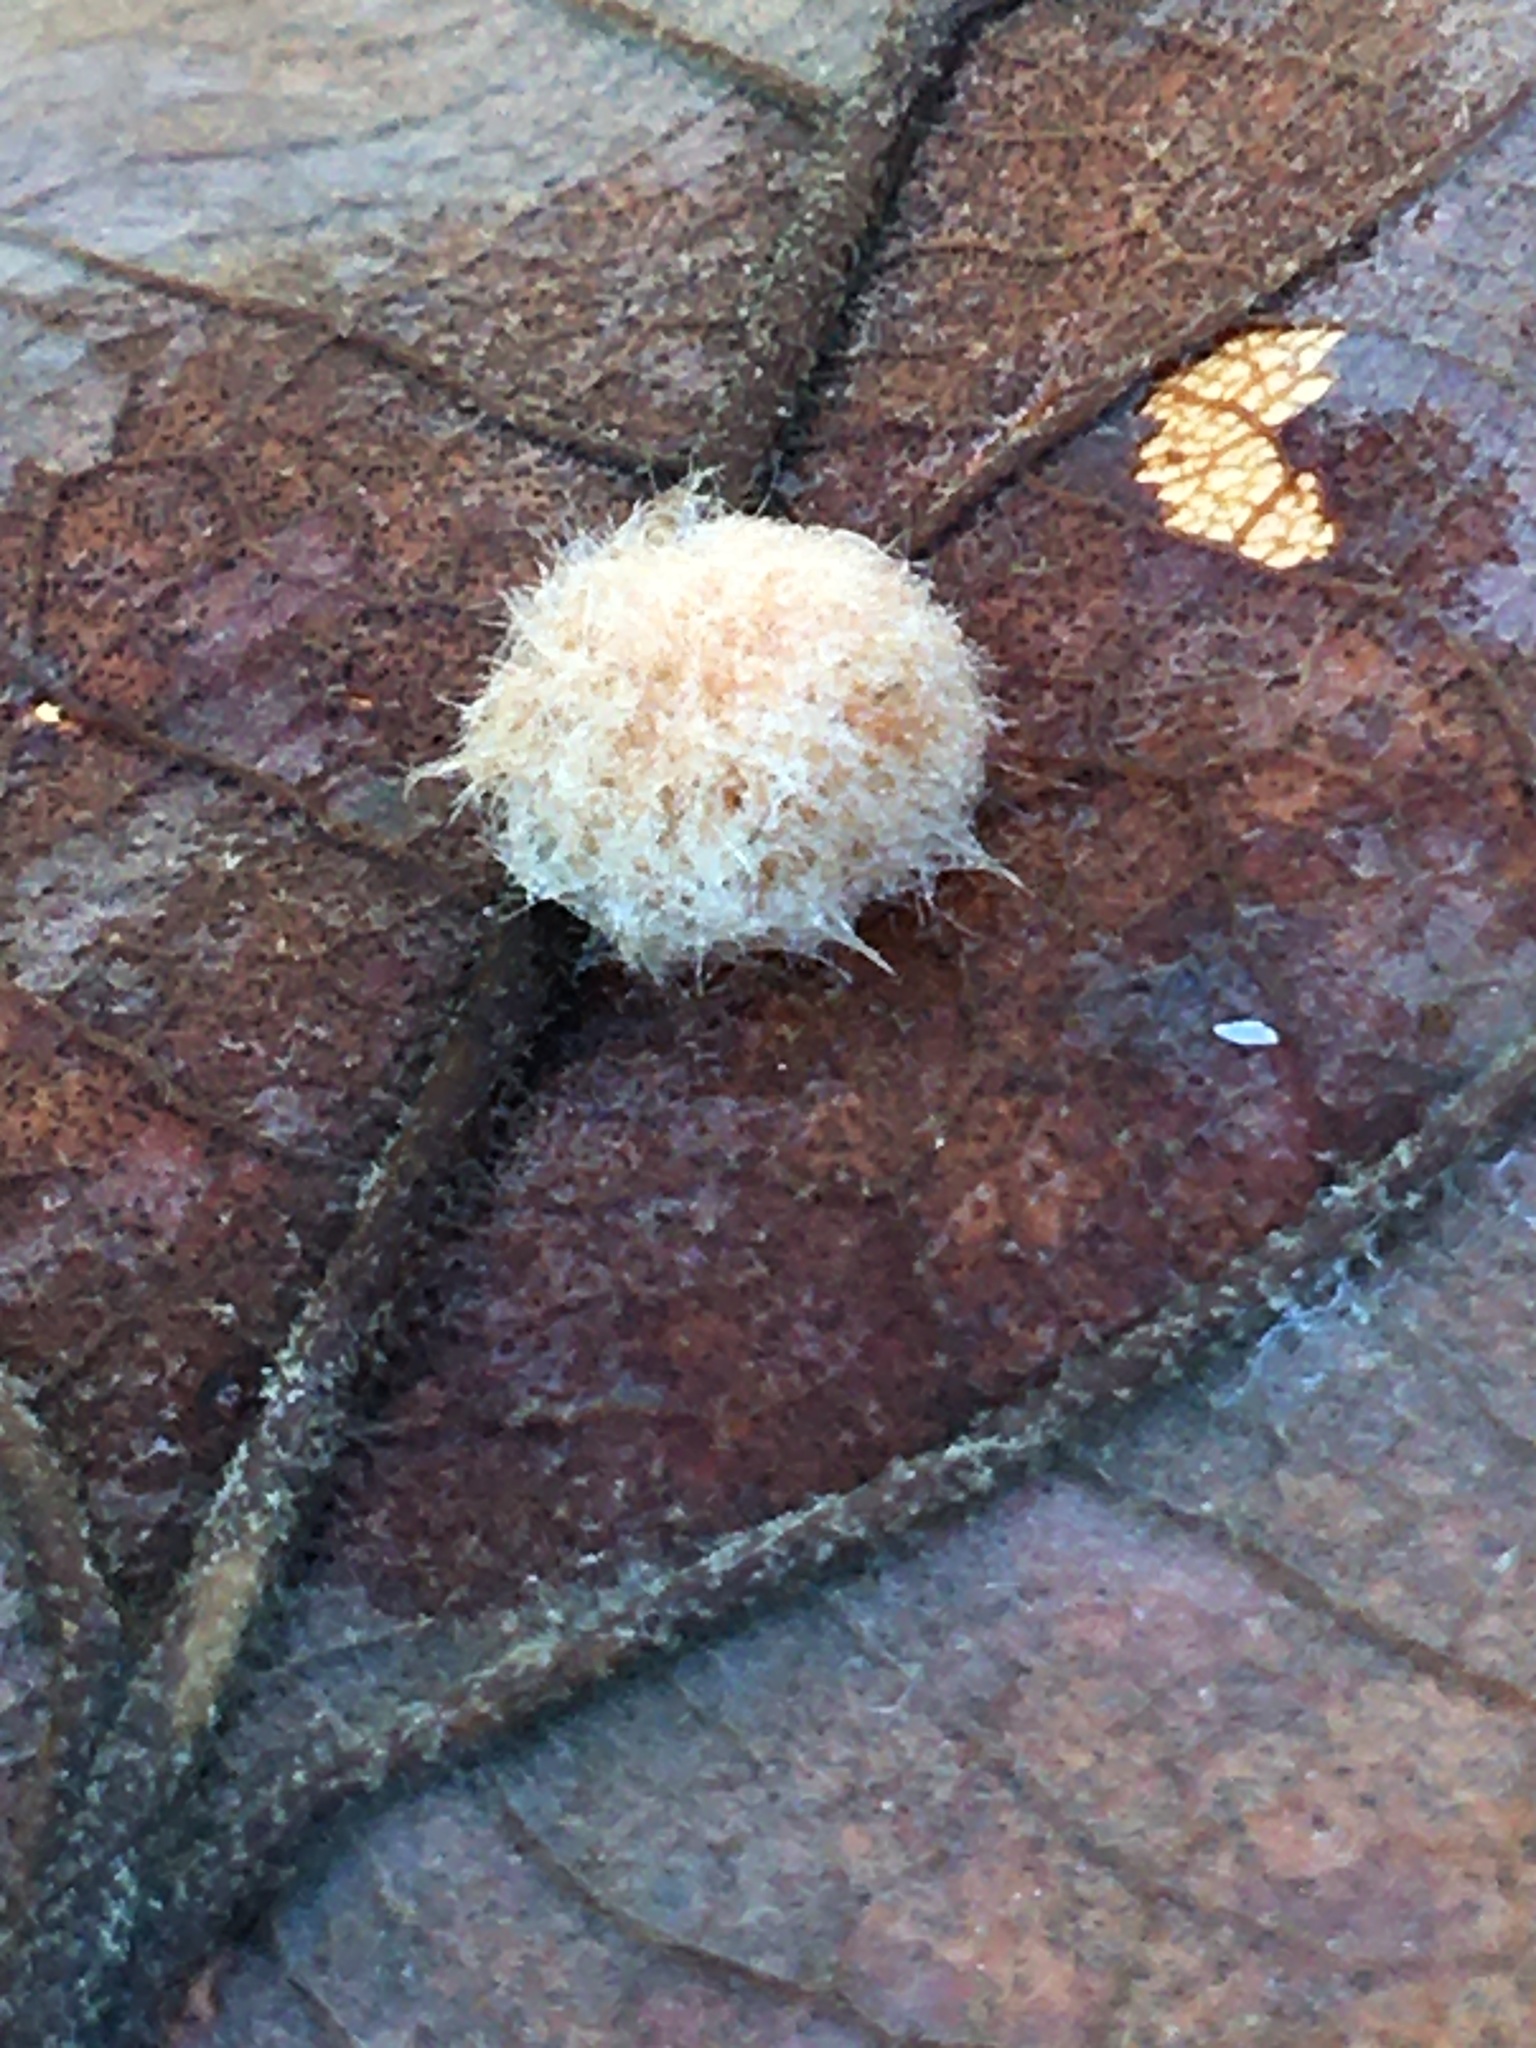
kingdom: Animalia
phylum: Arthropoda
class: Insecta
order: Hymenoptera
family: Cynipidae
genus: Andricus
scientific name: Andricus quercusflocci
